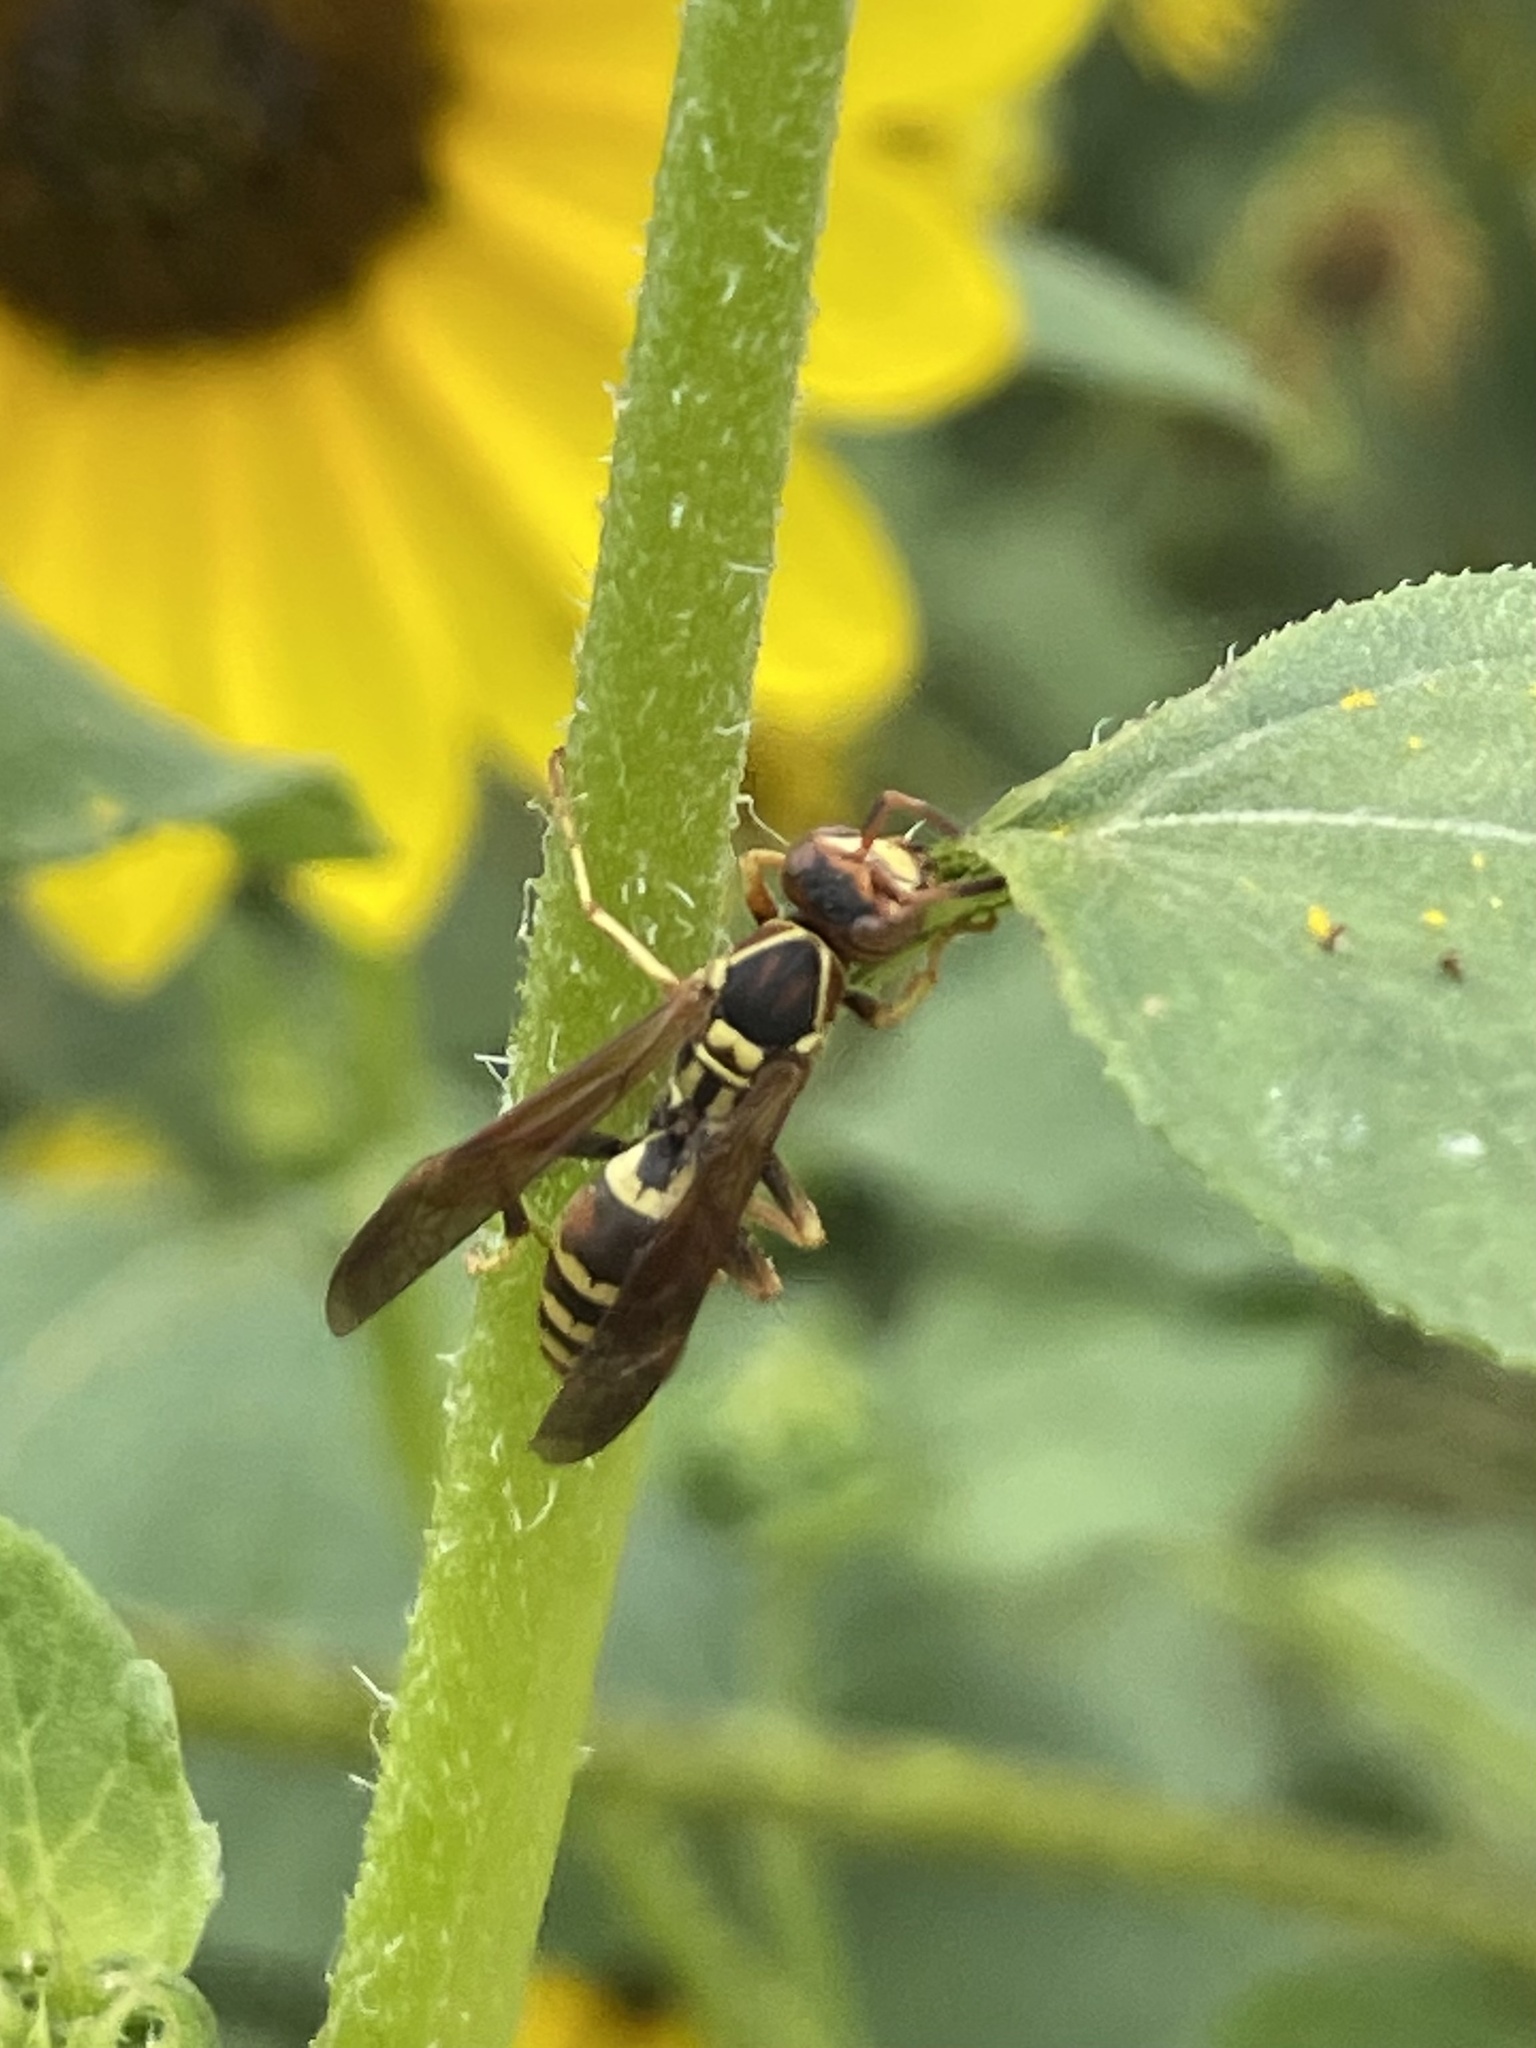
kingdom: Animalia
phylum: Arthropoda
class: Insecta
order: Hymenoptera
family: Eumenidae
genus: Polistes
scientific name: Polistes dorsalis
